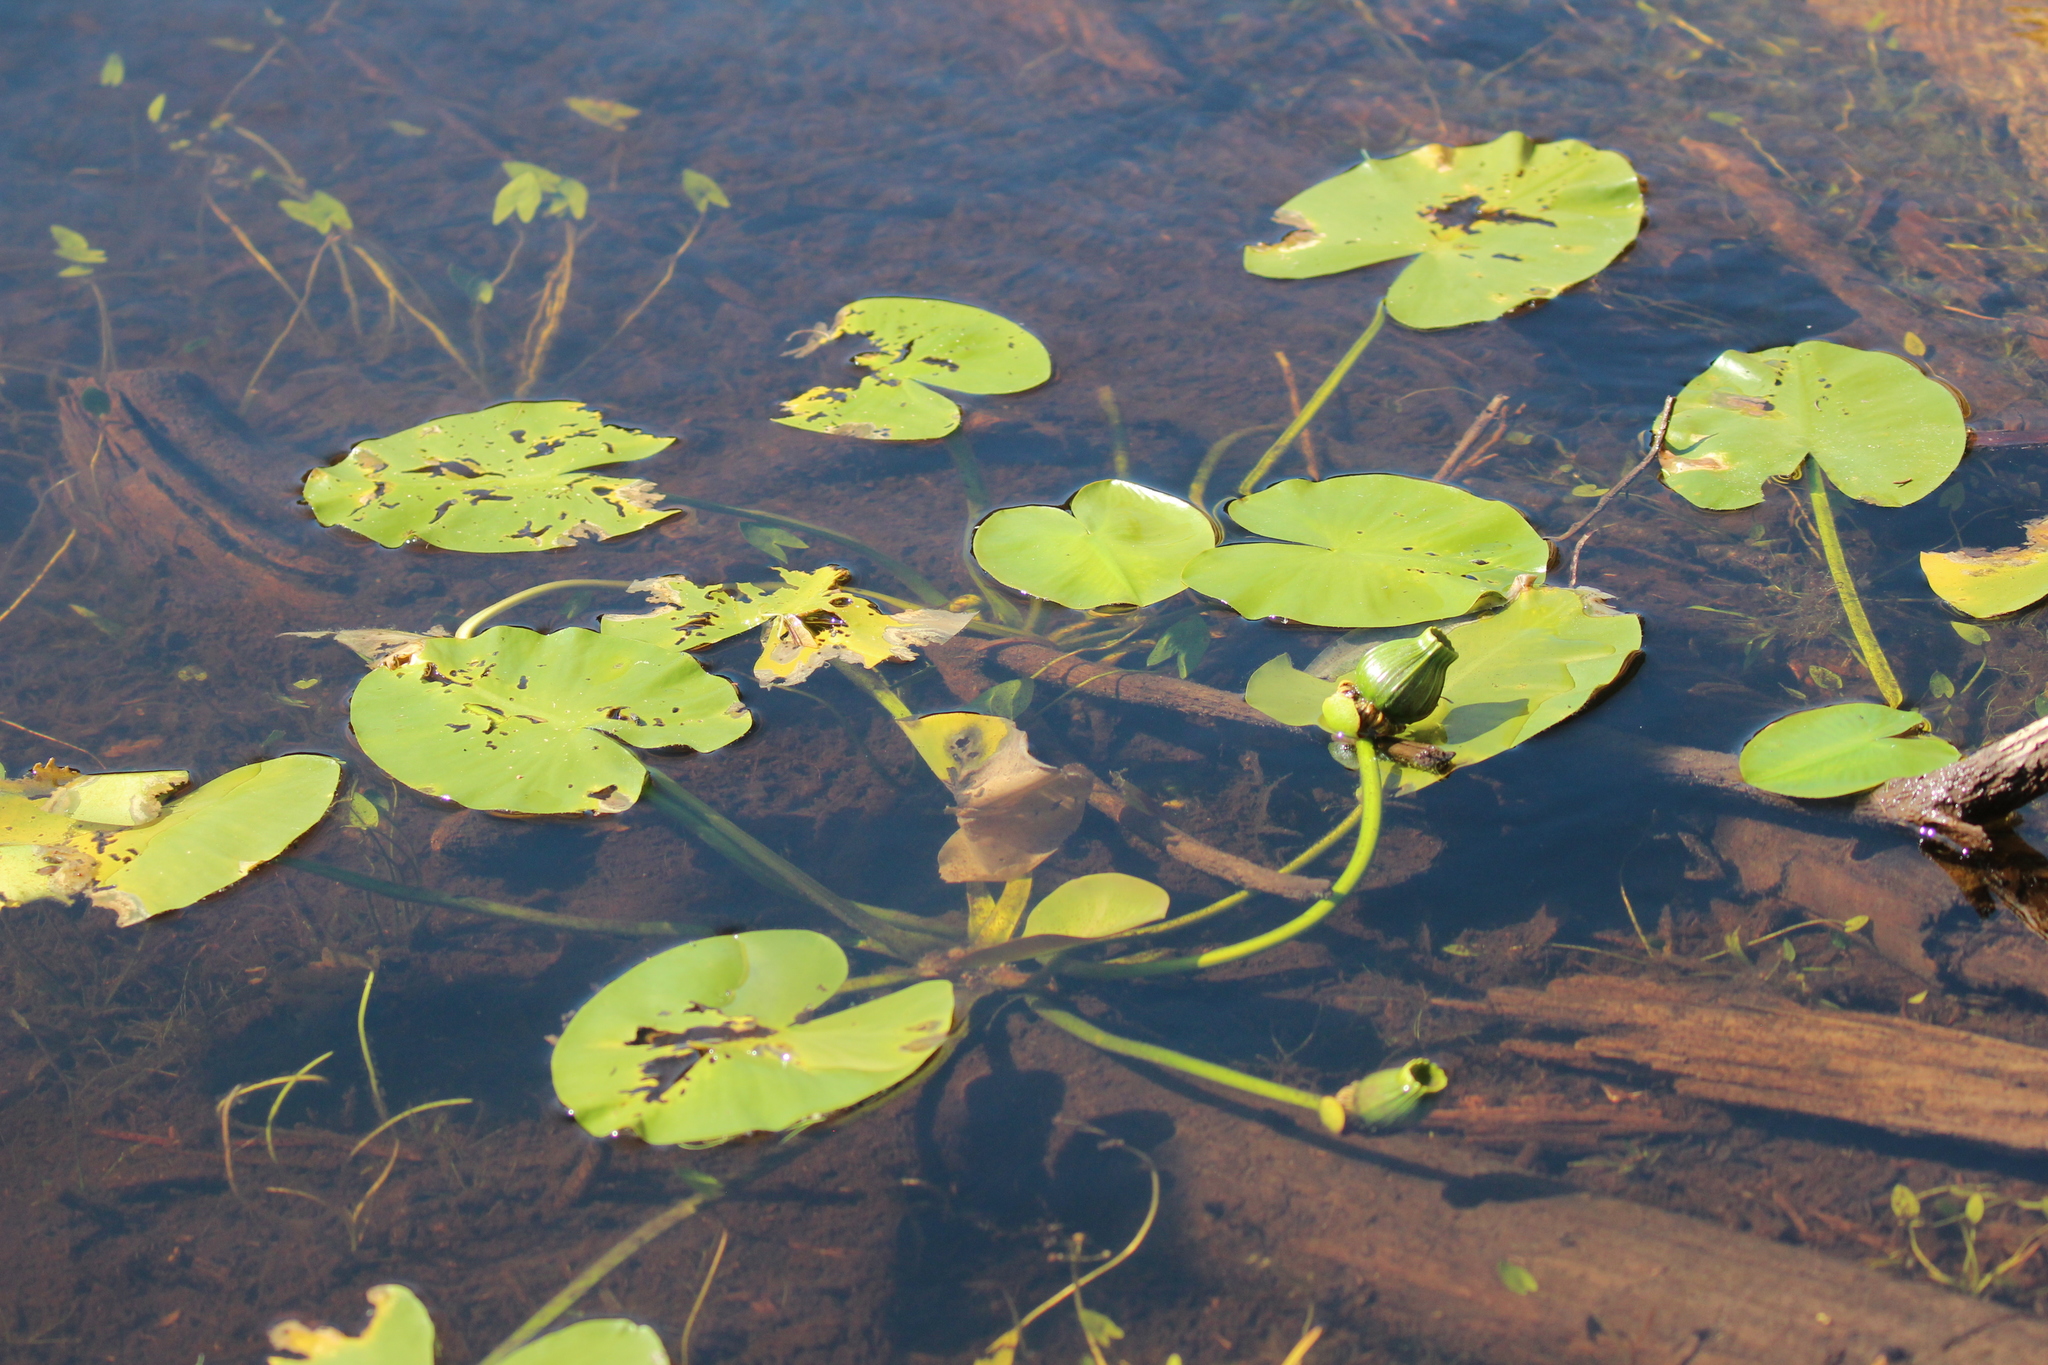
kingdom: Plantae
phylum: Tracheophyta
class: Magnoliopsida
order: Nymphaeales
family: Nymphaeaceae
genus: Nuphar
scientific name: Nuphar variegata
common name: Beaver-root
